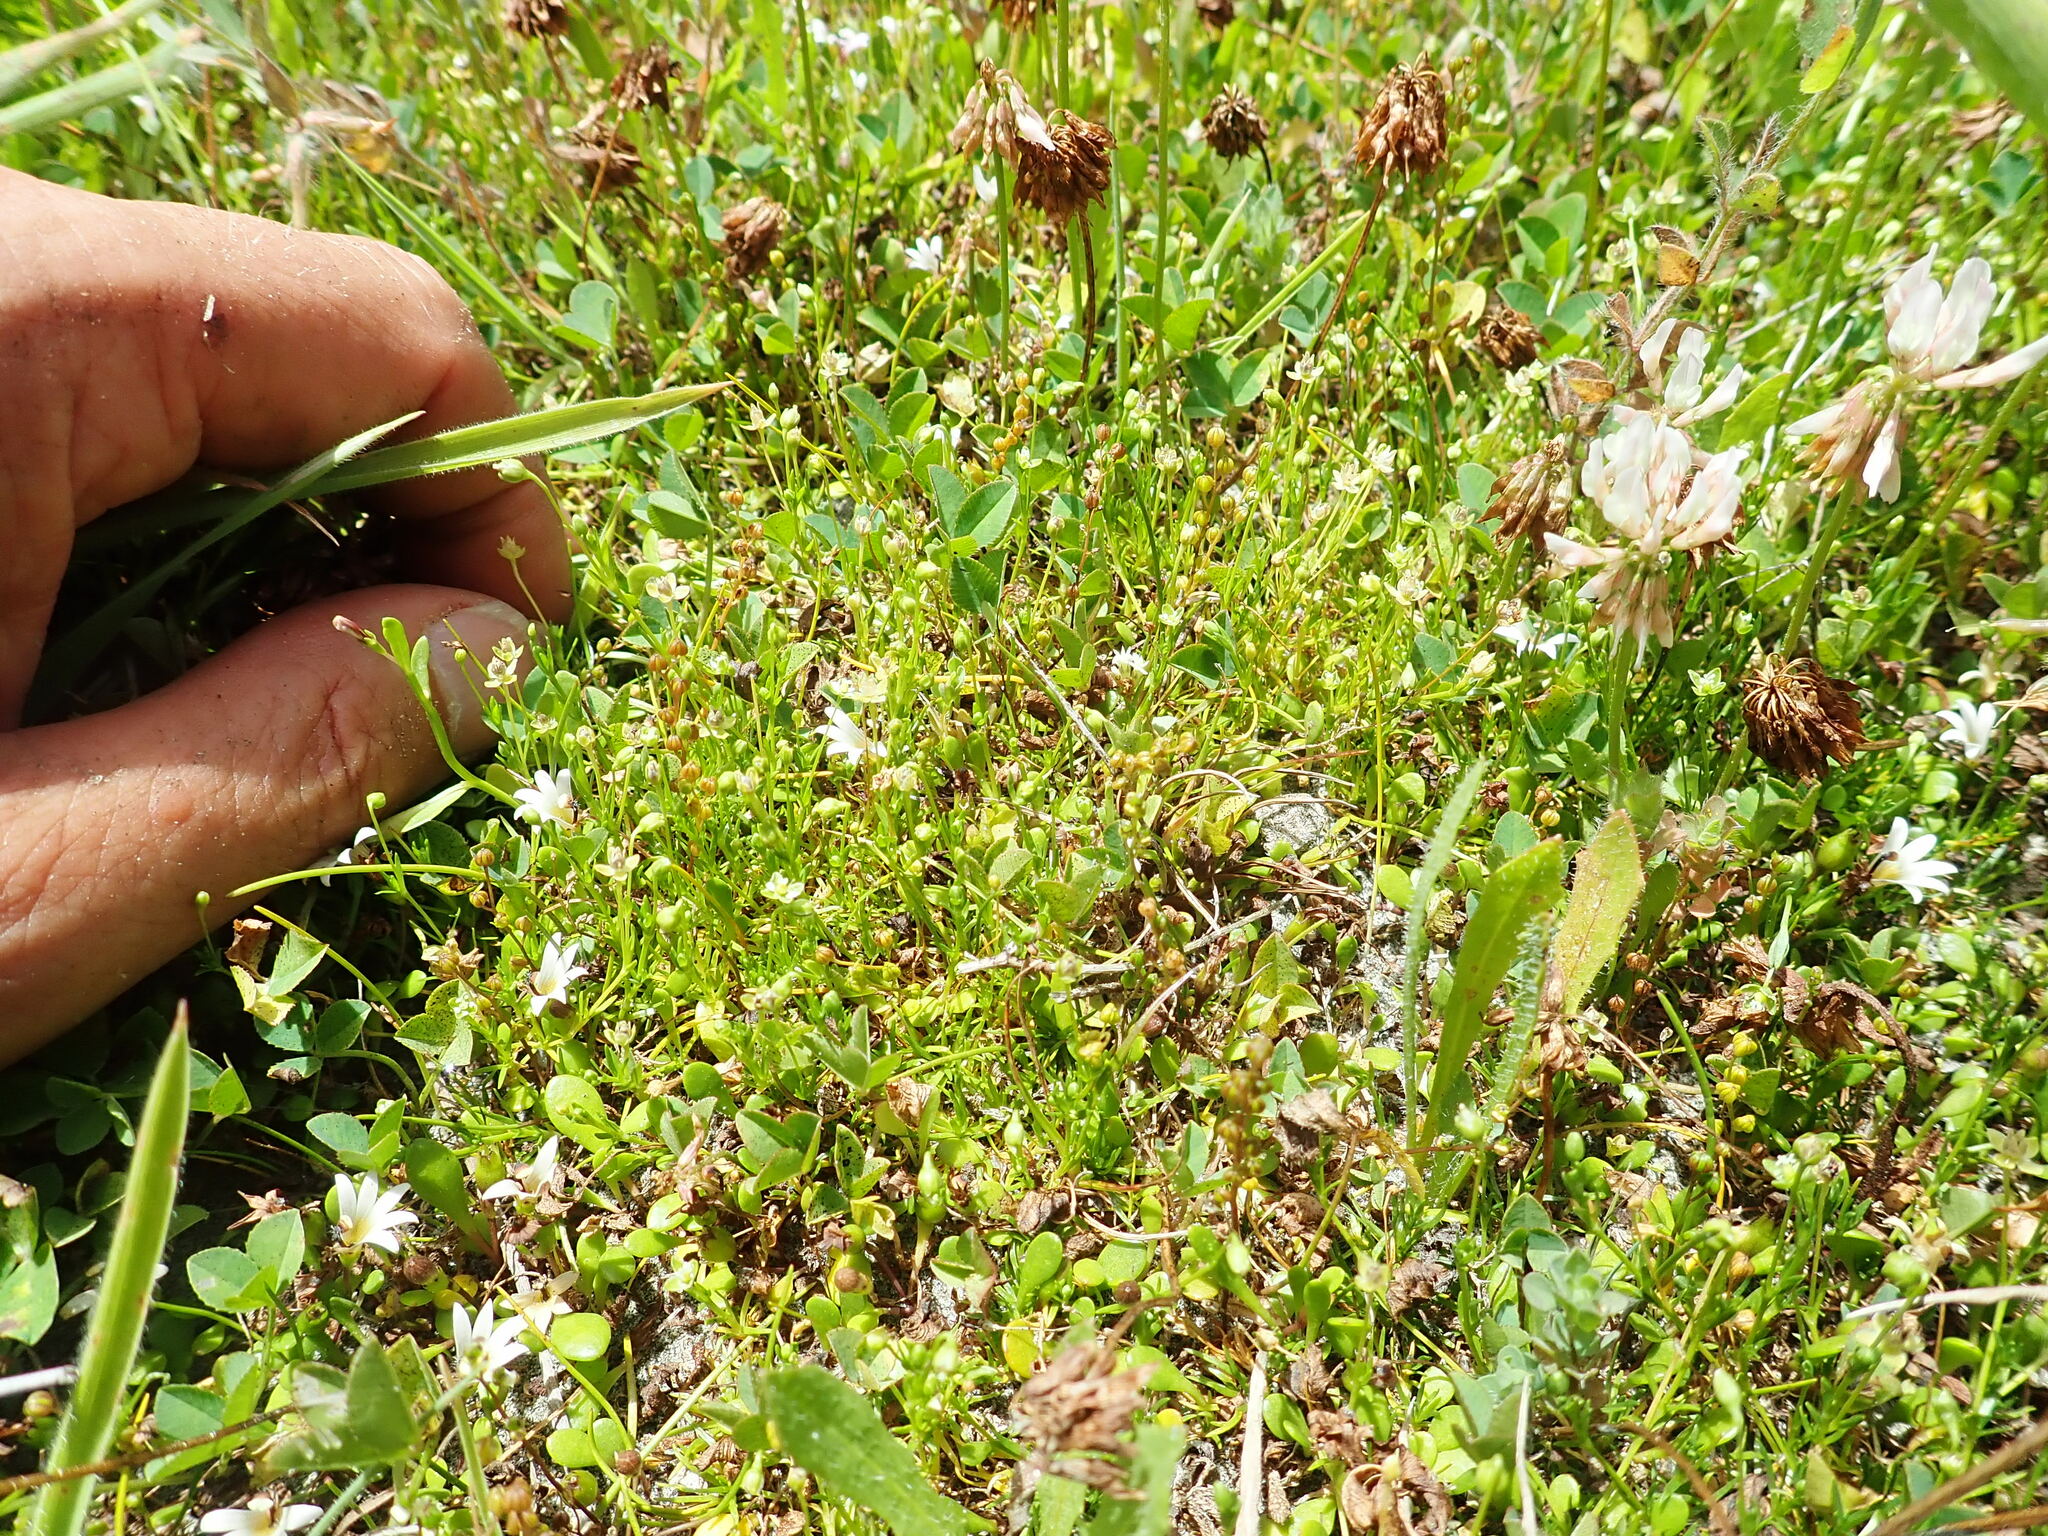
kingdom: Plantae
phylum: Tracheophyta
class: Magnoliopsida
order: Caryophyllales
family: Caryophyllaceae
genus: Sagina
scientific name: Sagina procumbens
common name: Procumbent pearlwort
